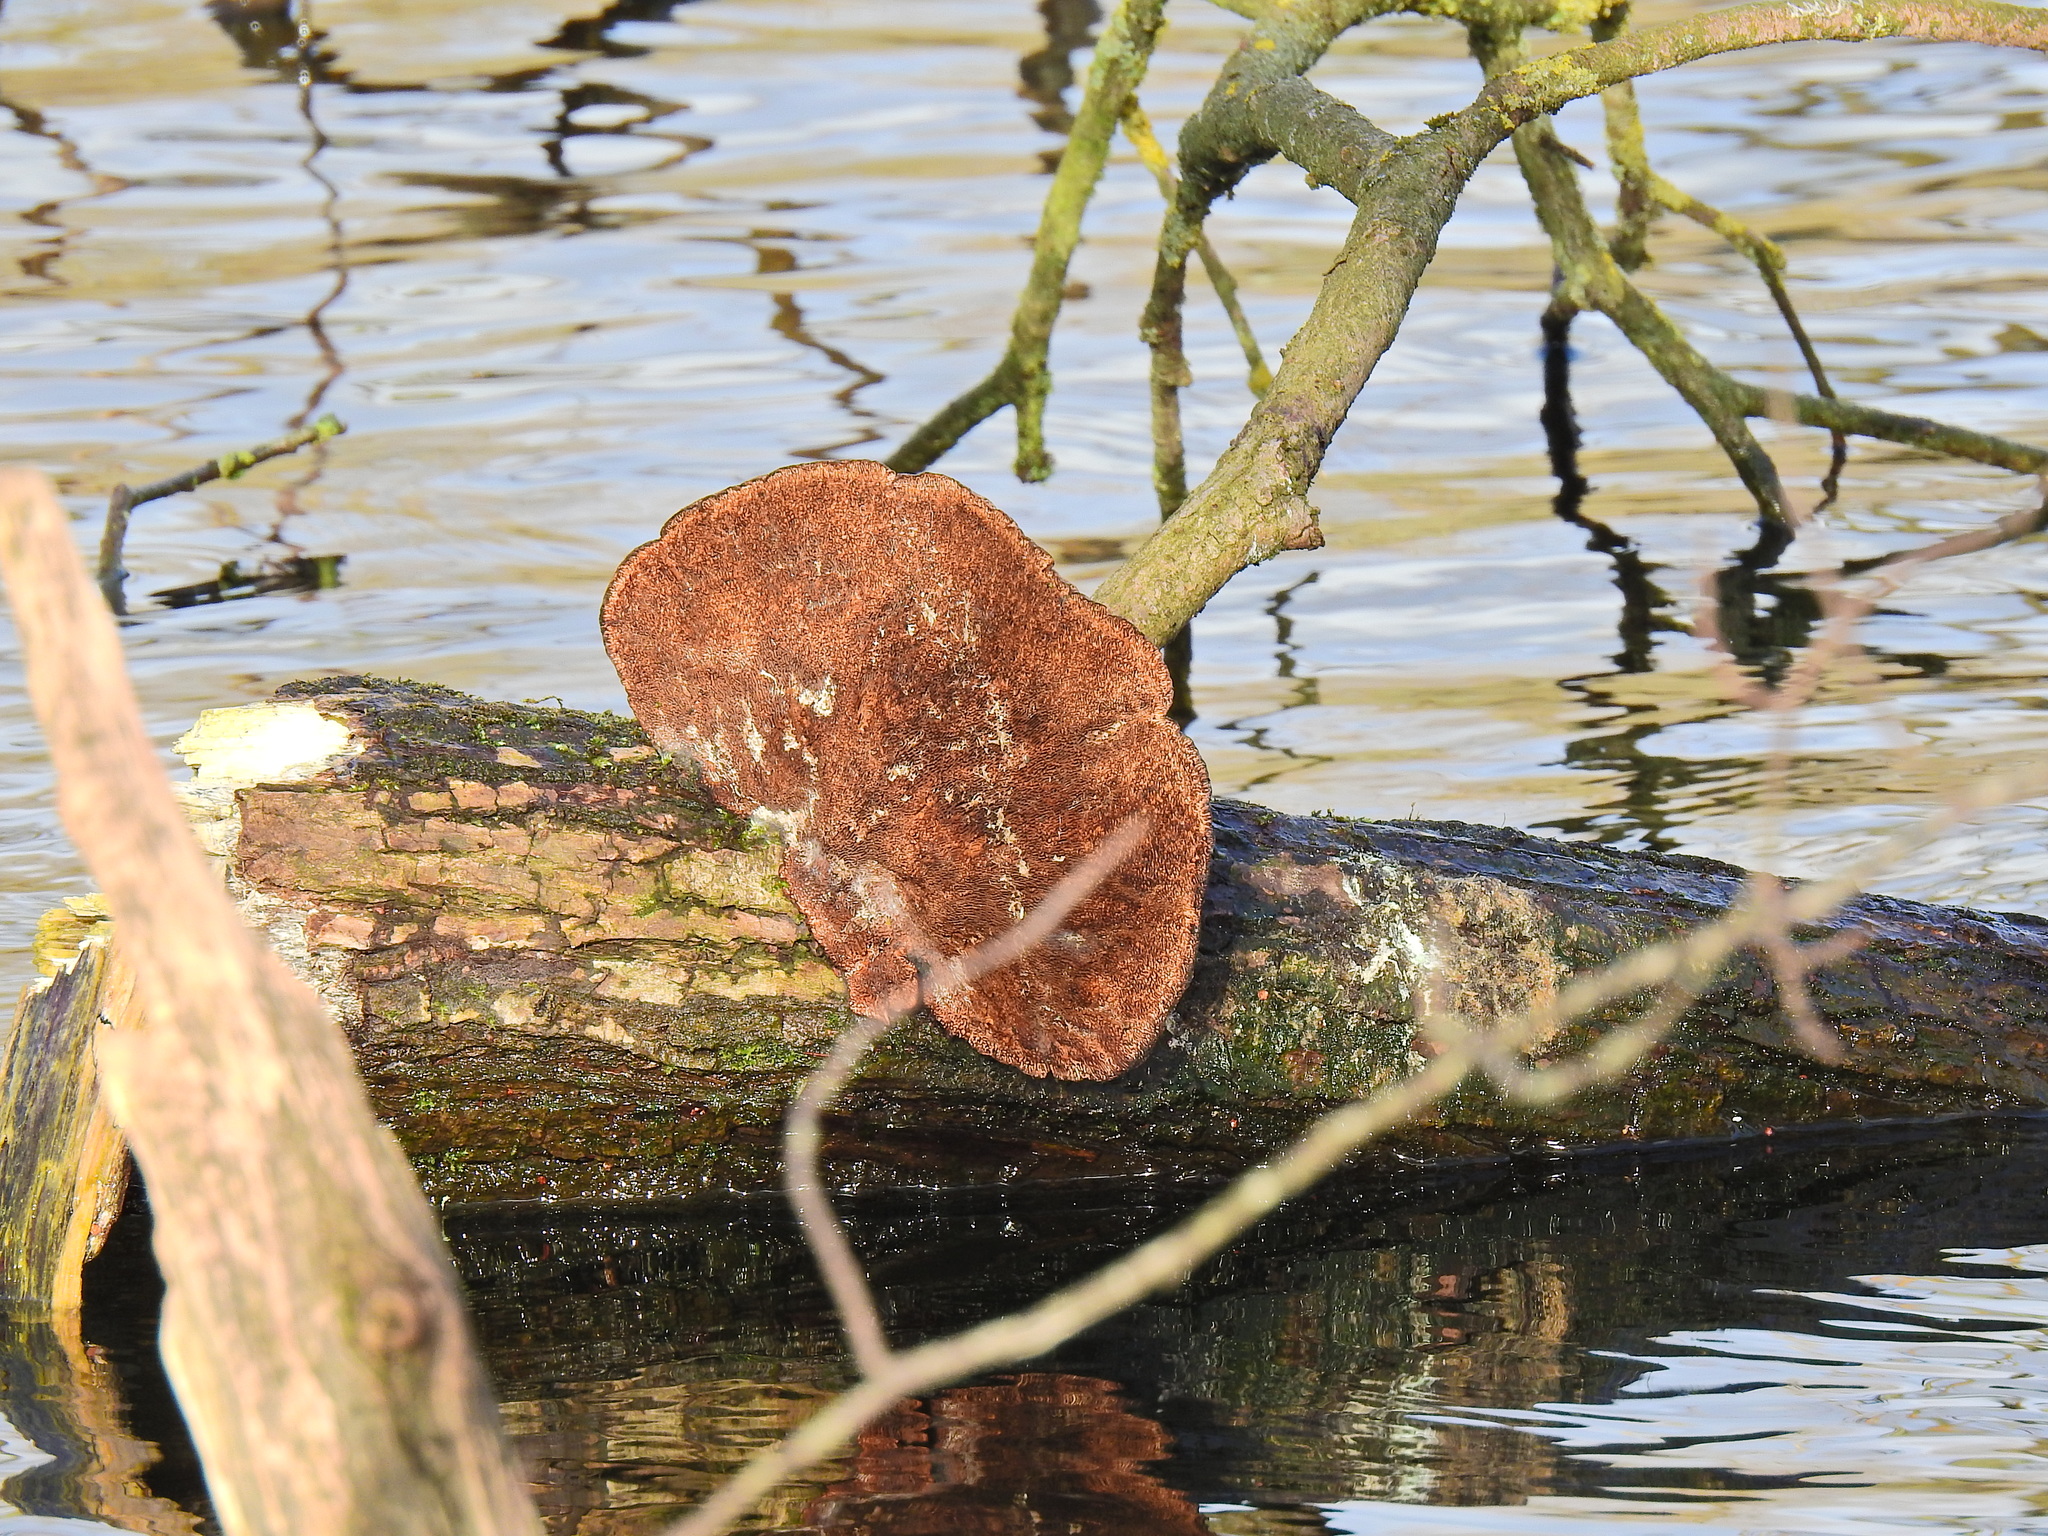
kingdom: Fungi
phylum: Basidiomycota
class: Agaricomycetes
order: Polyporales
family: Polyporaceae
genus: Daedaleopsis
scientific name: Daedaleopsis confragosa
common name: Blushing bracket
